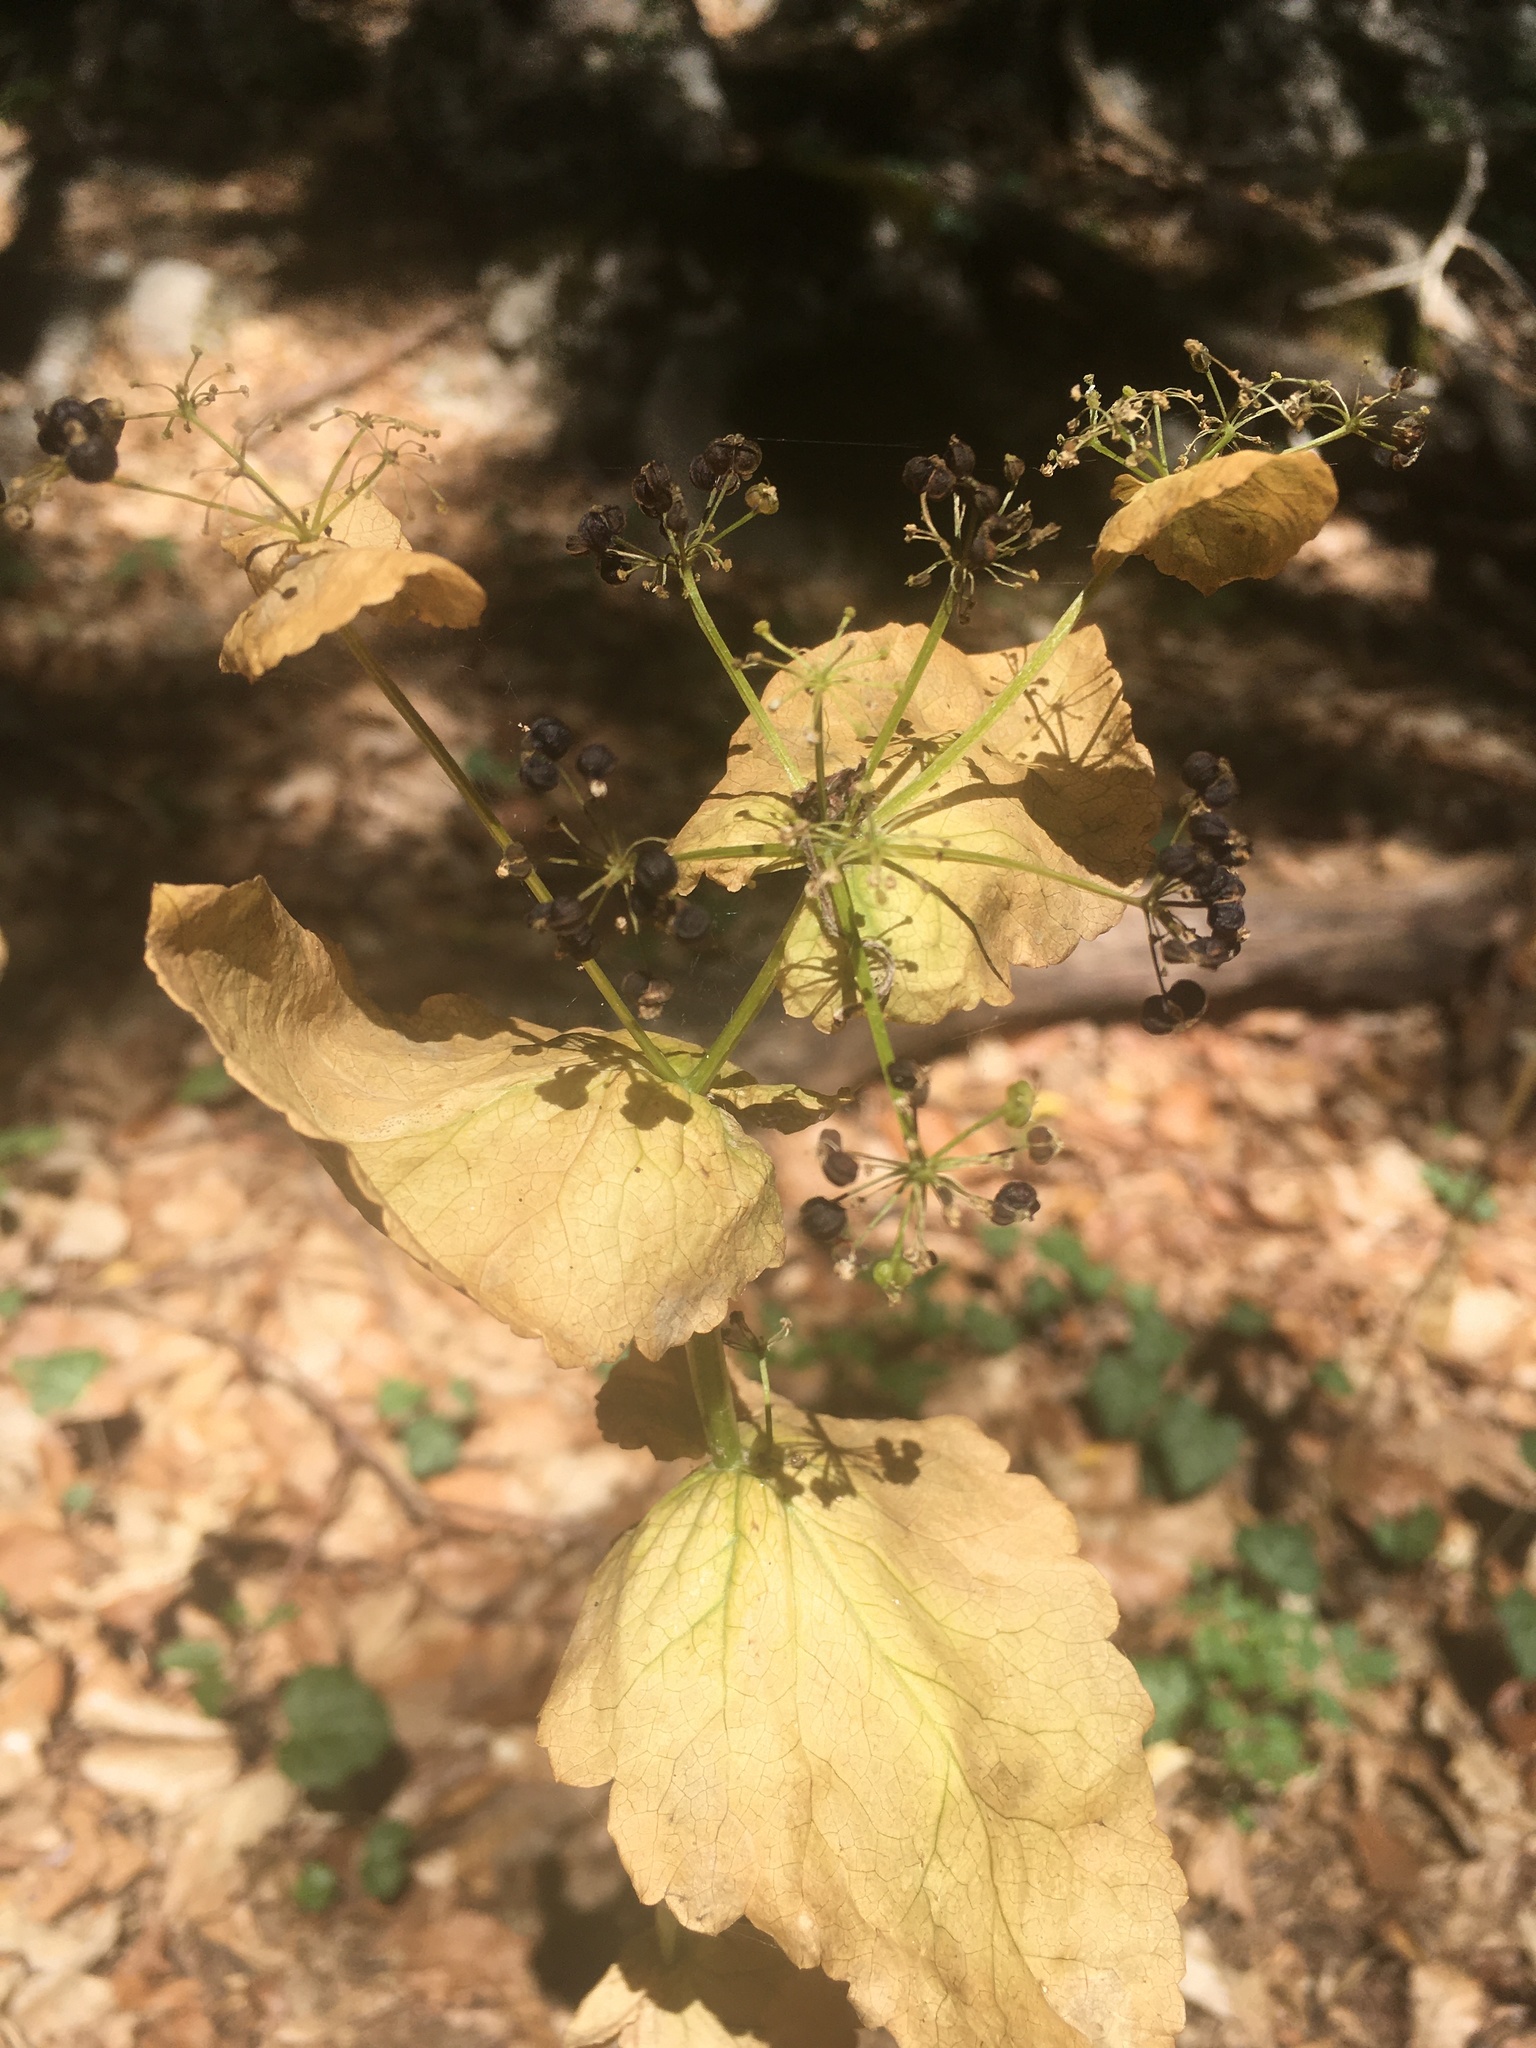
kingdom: Plantae
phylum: Tracheophyta
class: Magnoliopsida
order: Apiales
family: Apiaceae
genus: Smyrnium
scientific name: Smyrnium perfoliatum
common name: Perfoliate alexanders
